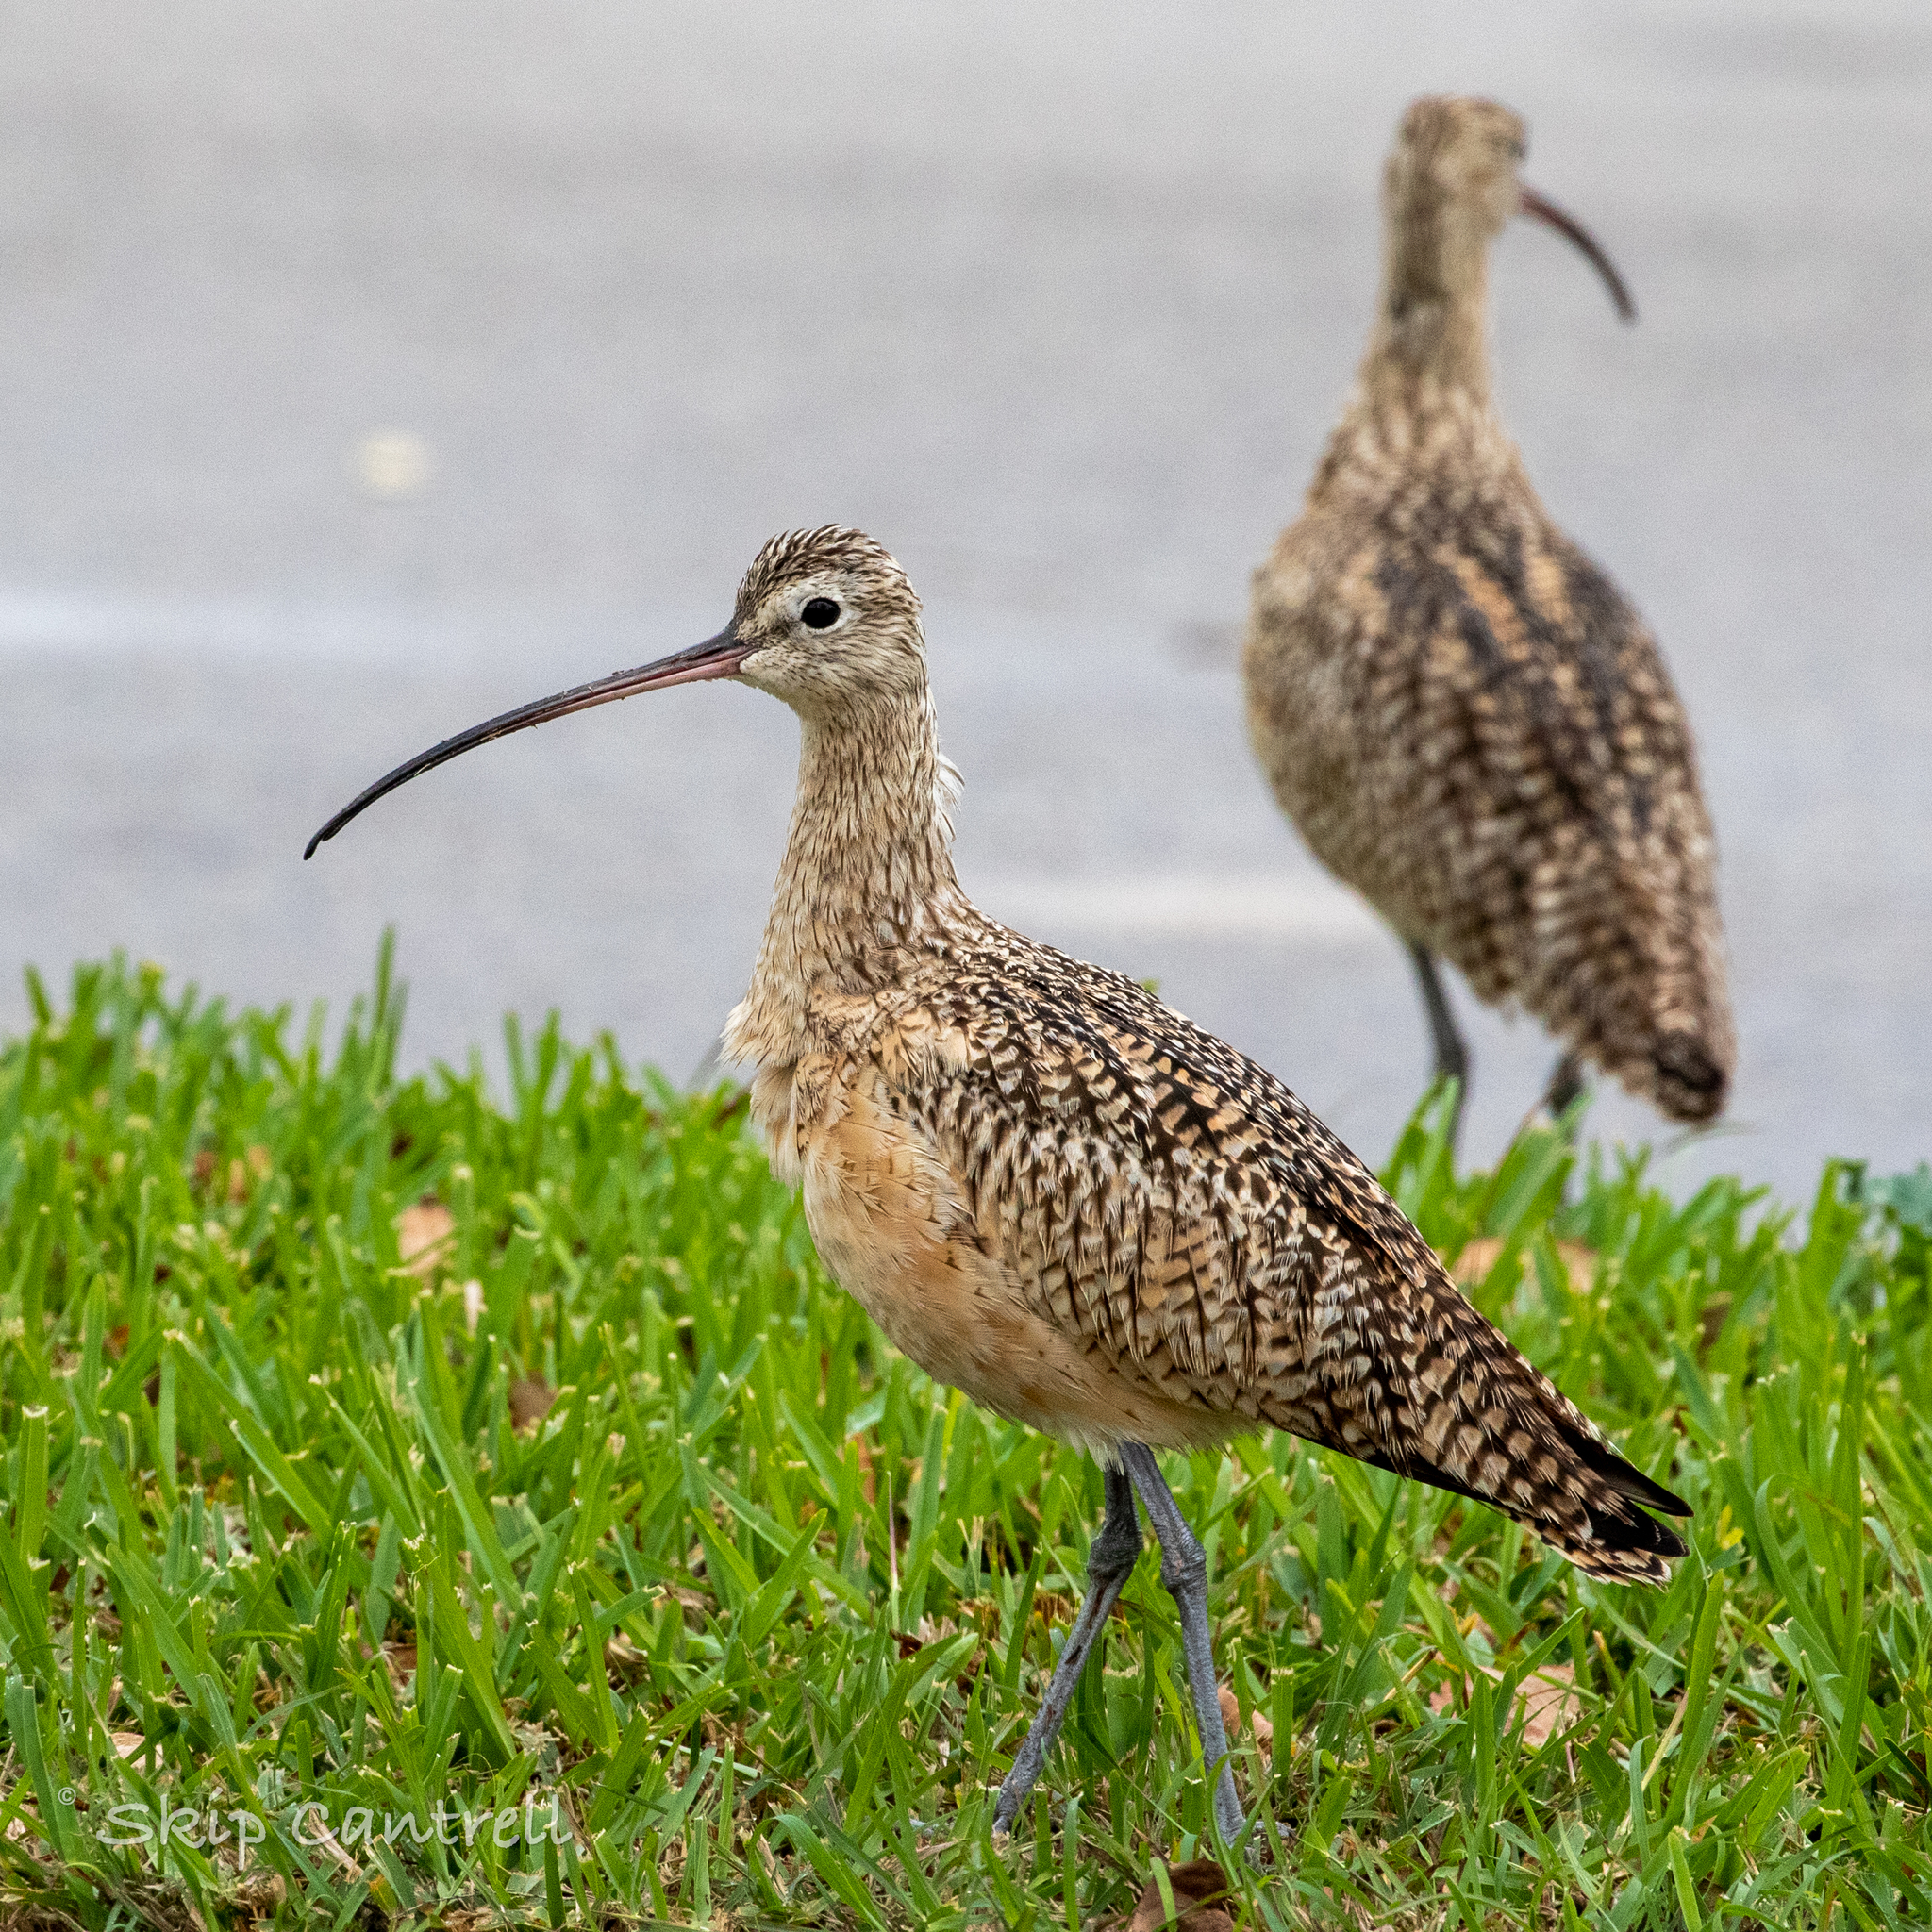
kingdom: Animalia
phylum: Chordata
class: Aves
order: Charadriiformes
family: Scolopacidae
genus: Numenius
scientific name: Numenius americanus
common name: Long-billed curlew
